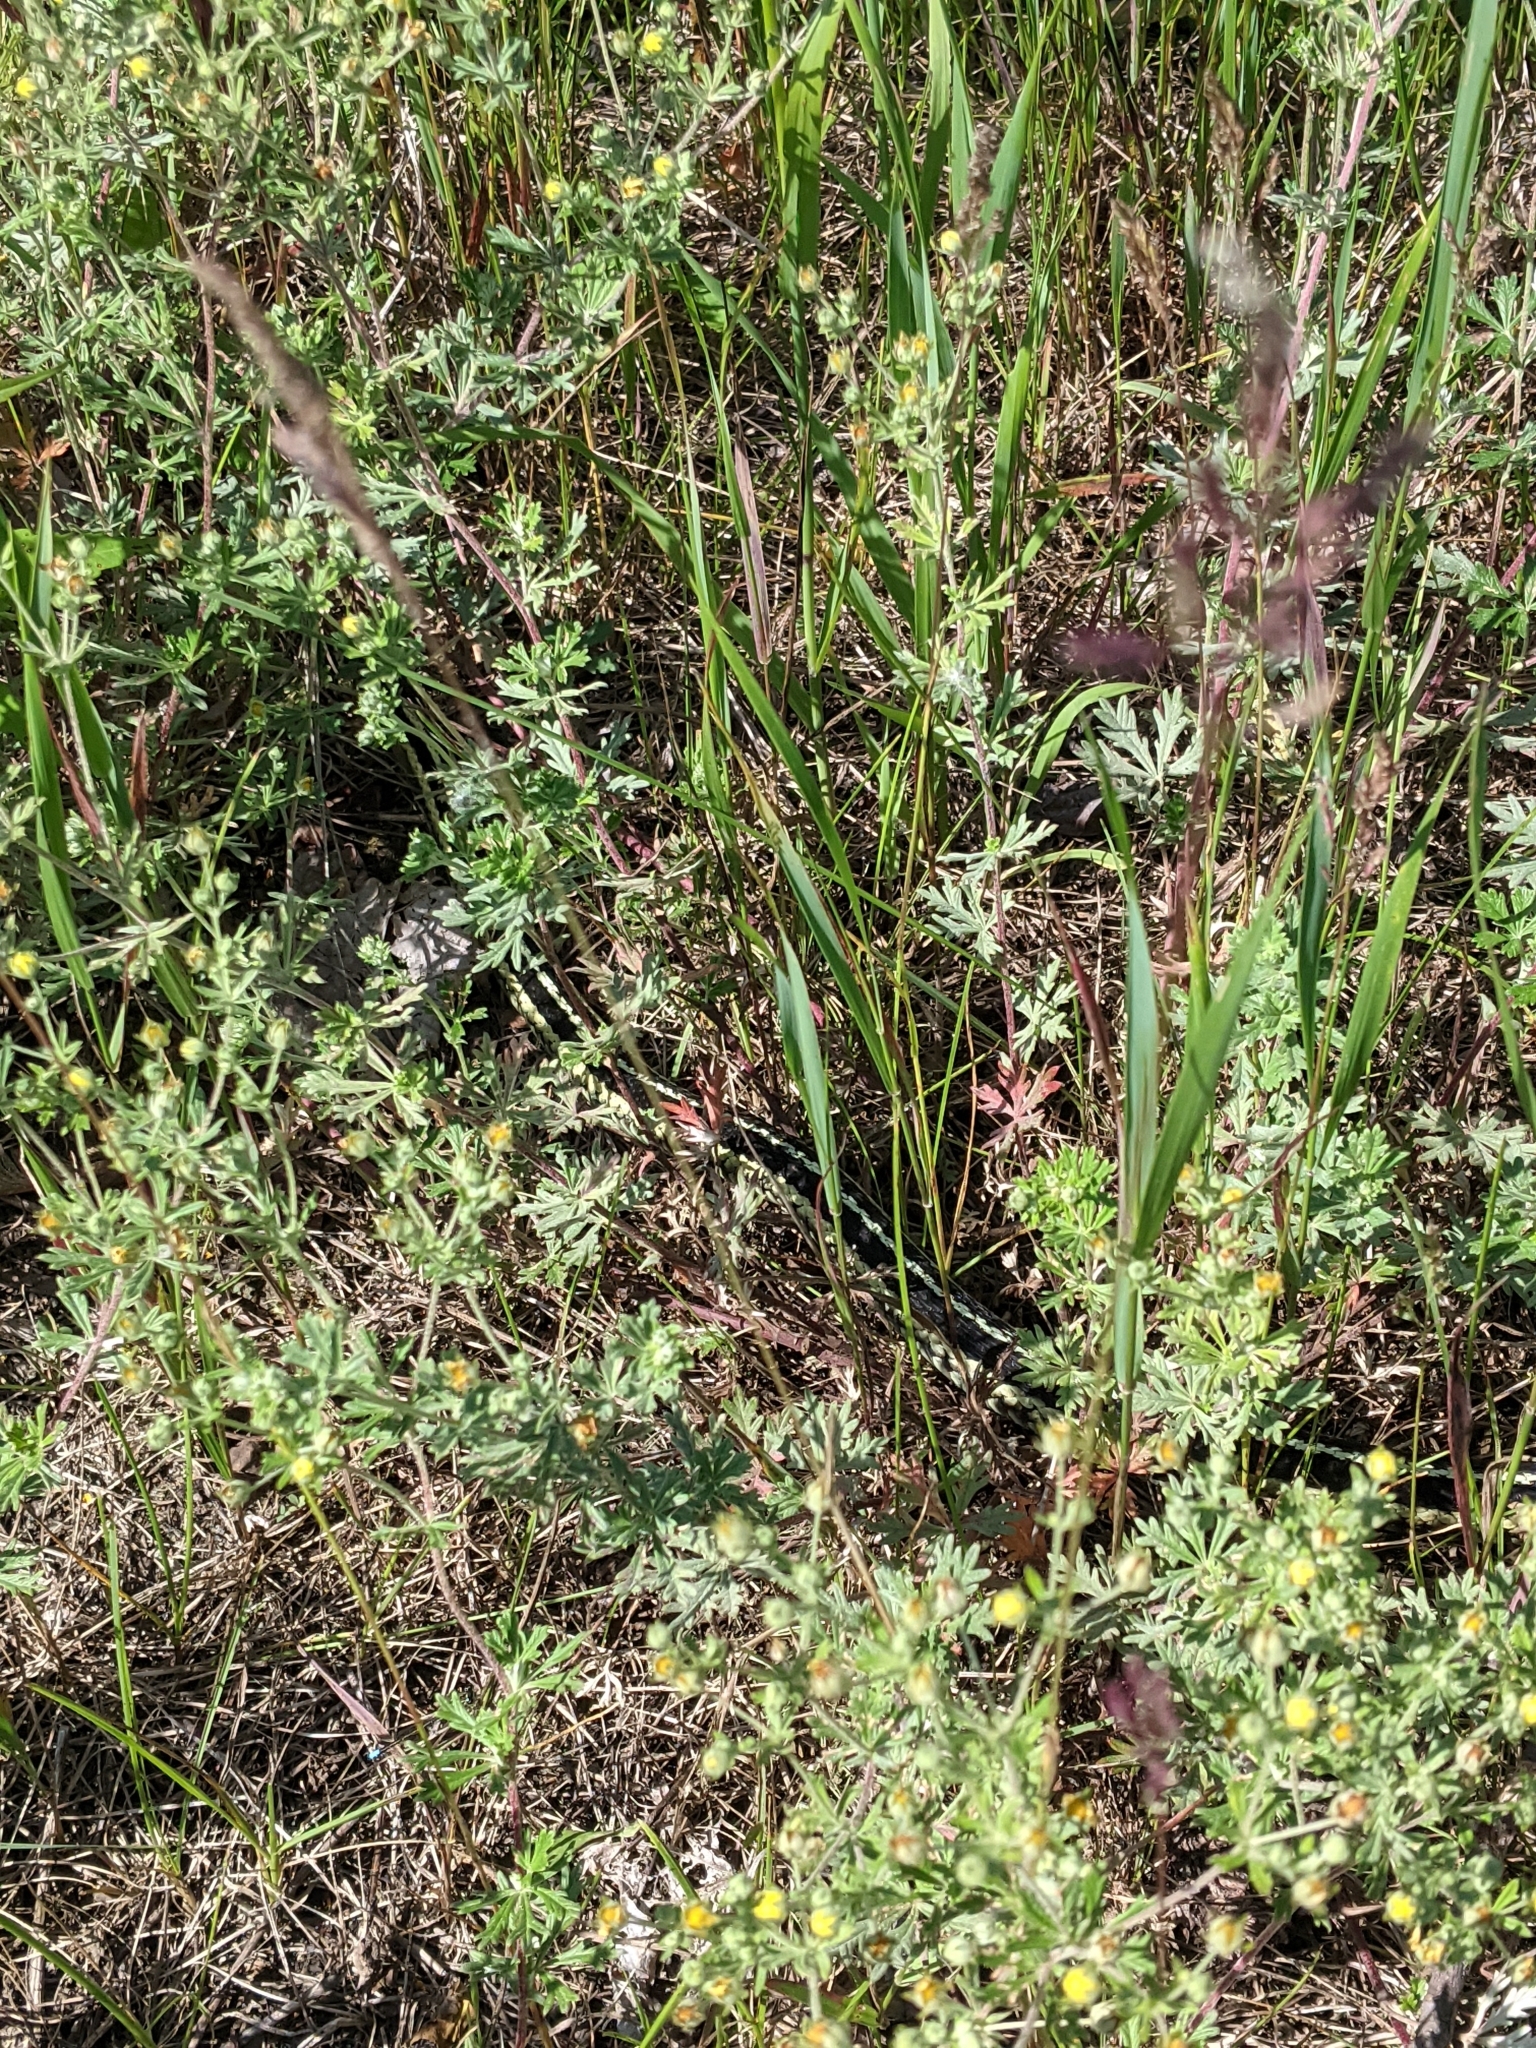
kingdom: Animalia
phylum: Chordata
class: Squamata
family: Colubridae
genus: Thamnophis
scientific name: Thamnophis sirtalis
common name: Common garter snake
